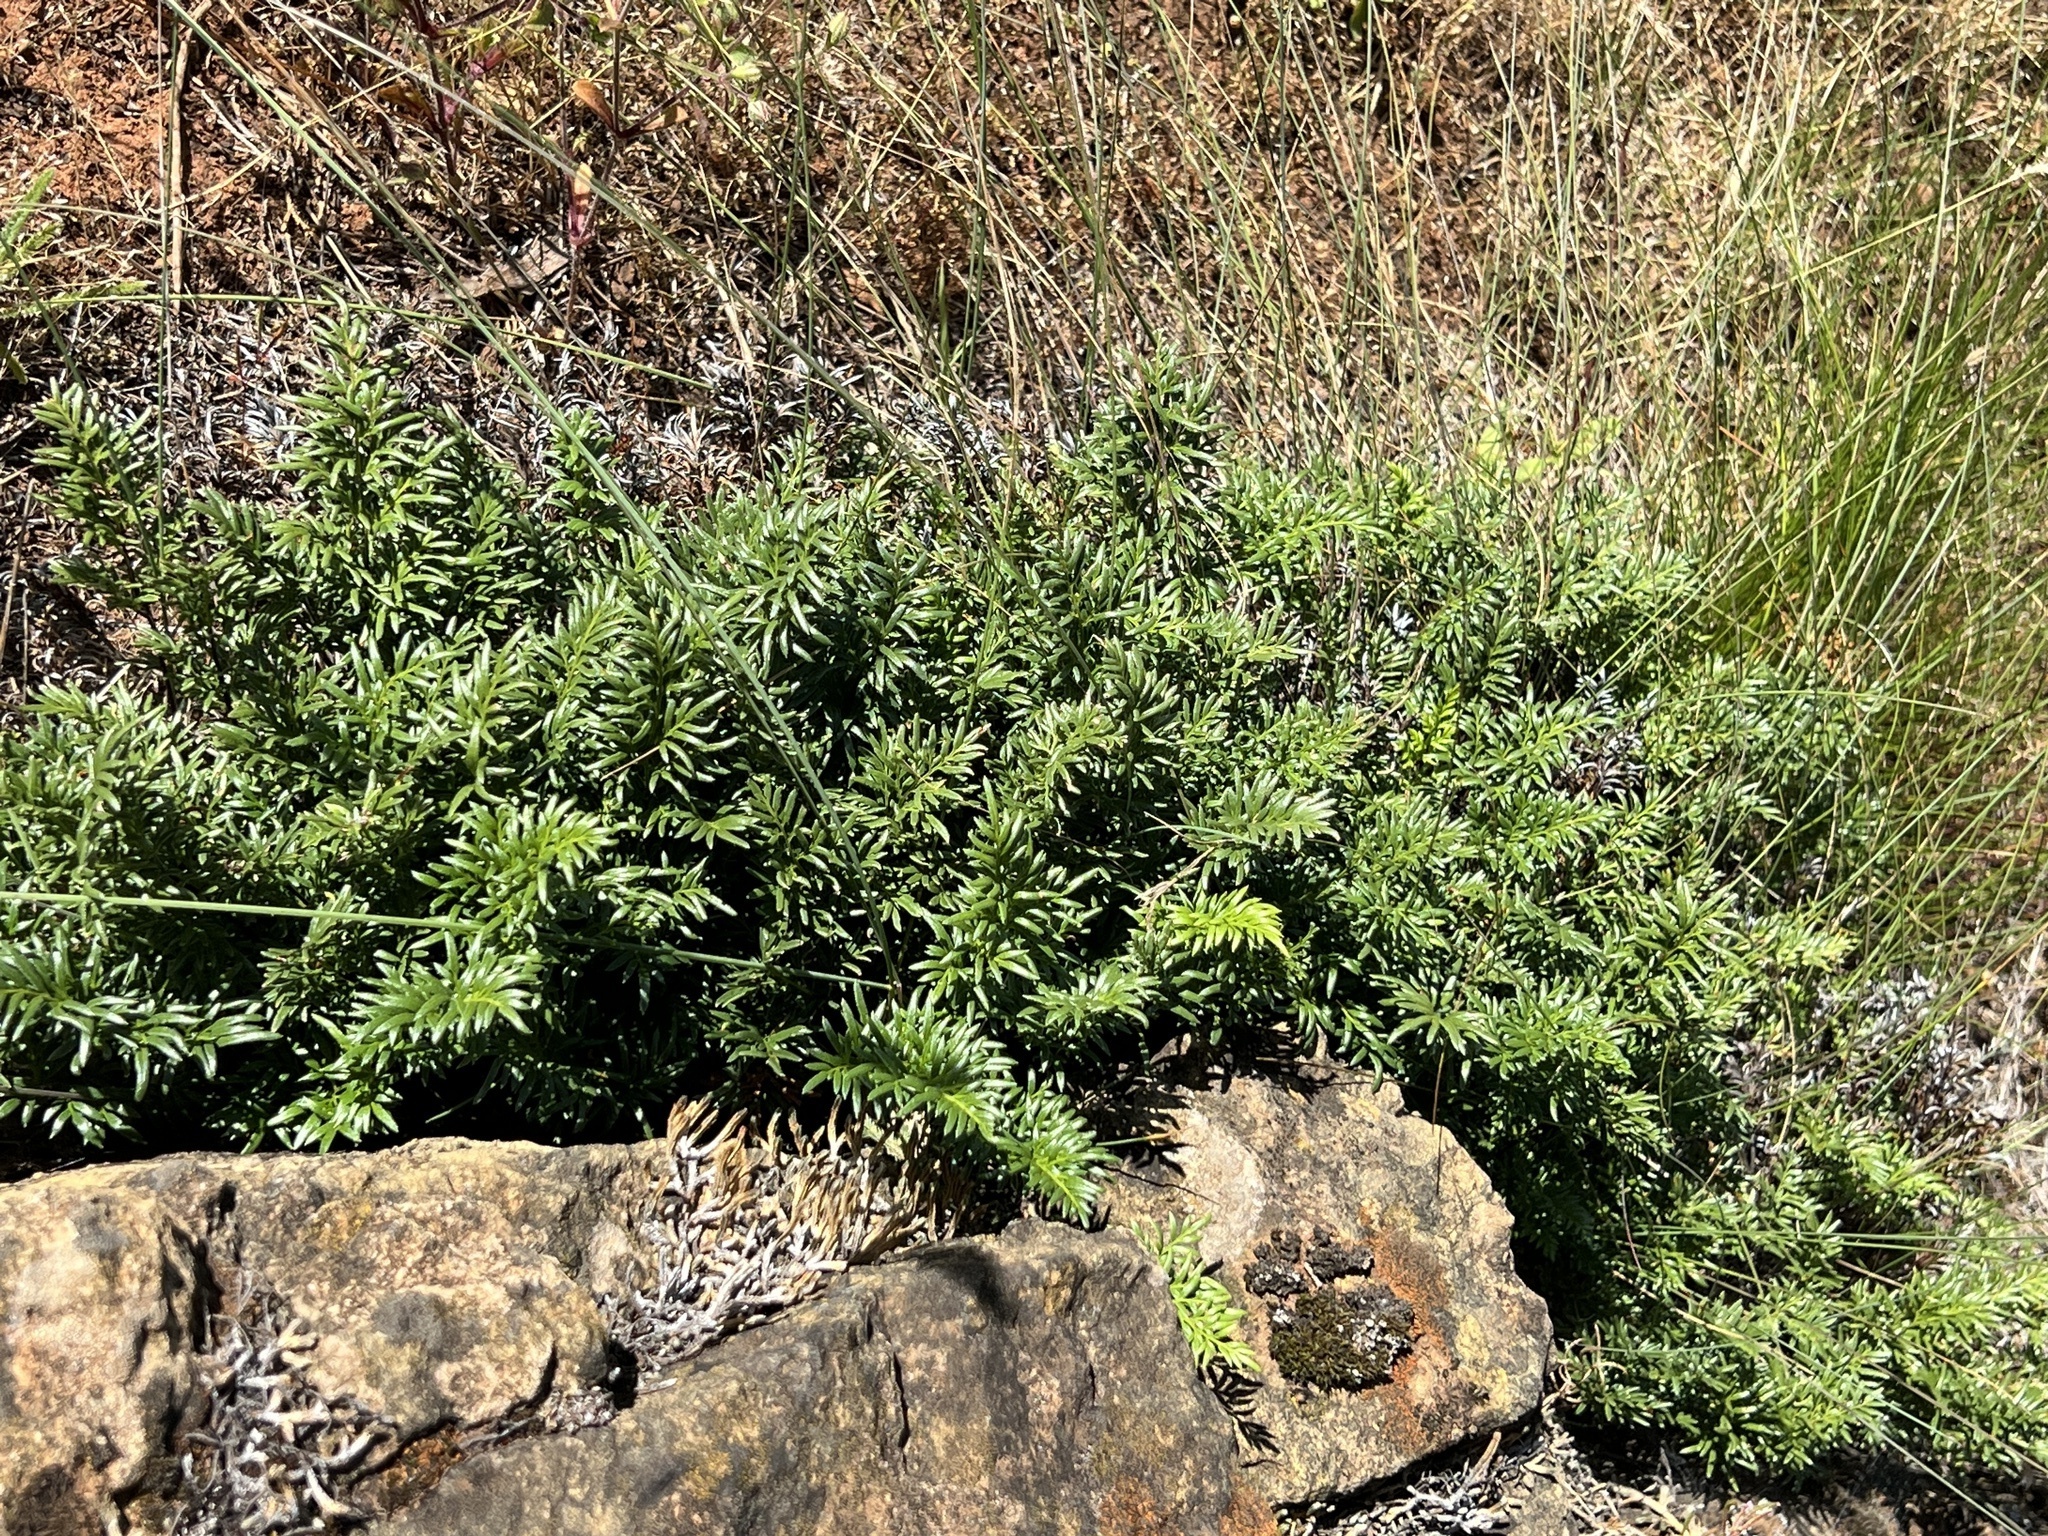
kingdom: Plantae
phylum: Tracheophyta
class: Polypodiopsida
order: Polypodiales
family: Pteridaceae
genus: Aspidotis
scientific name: Aspidotis densa
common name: Indian's dream
